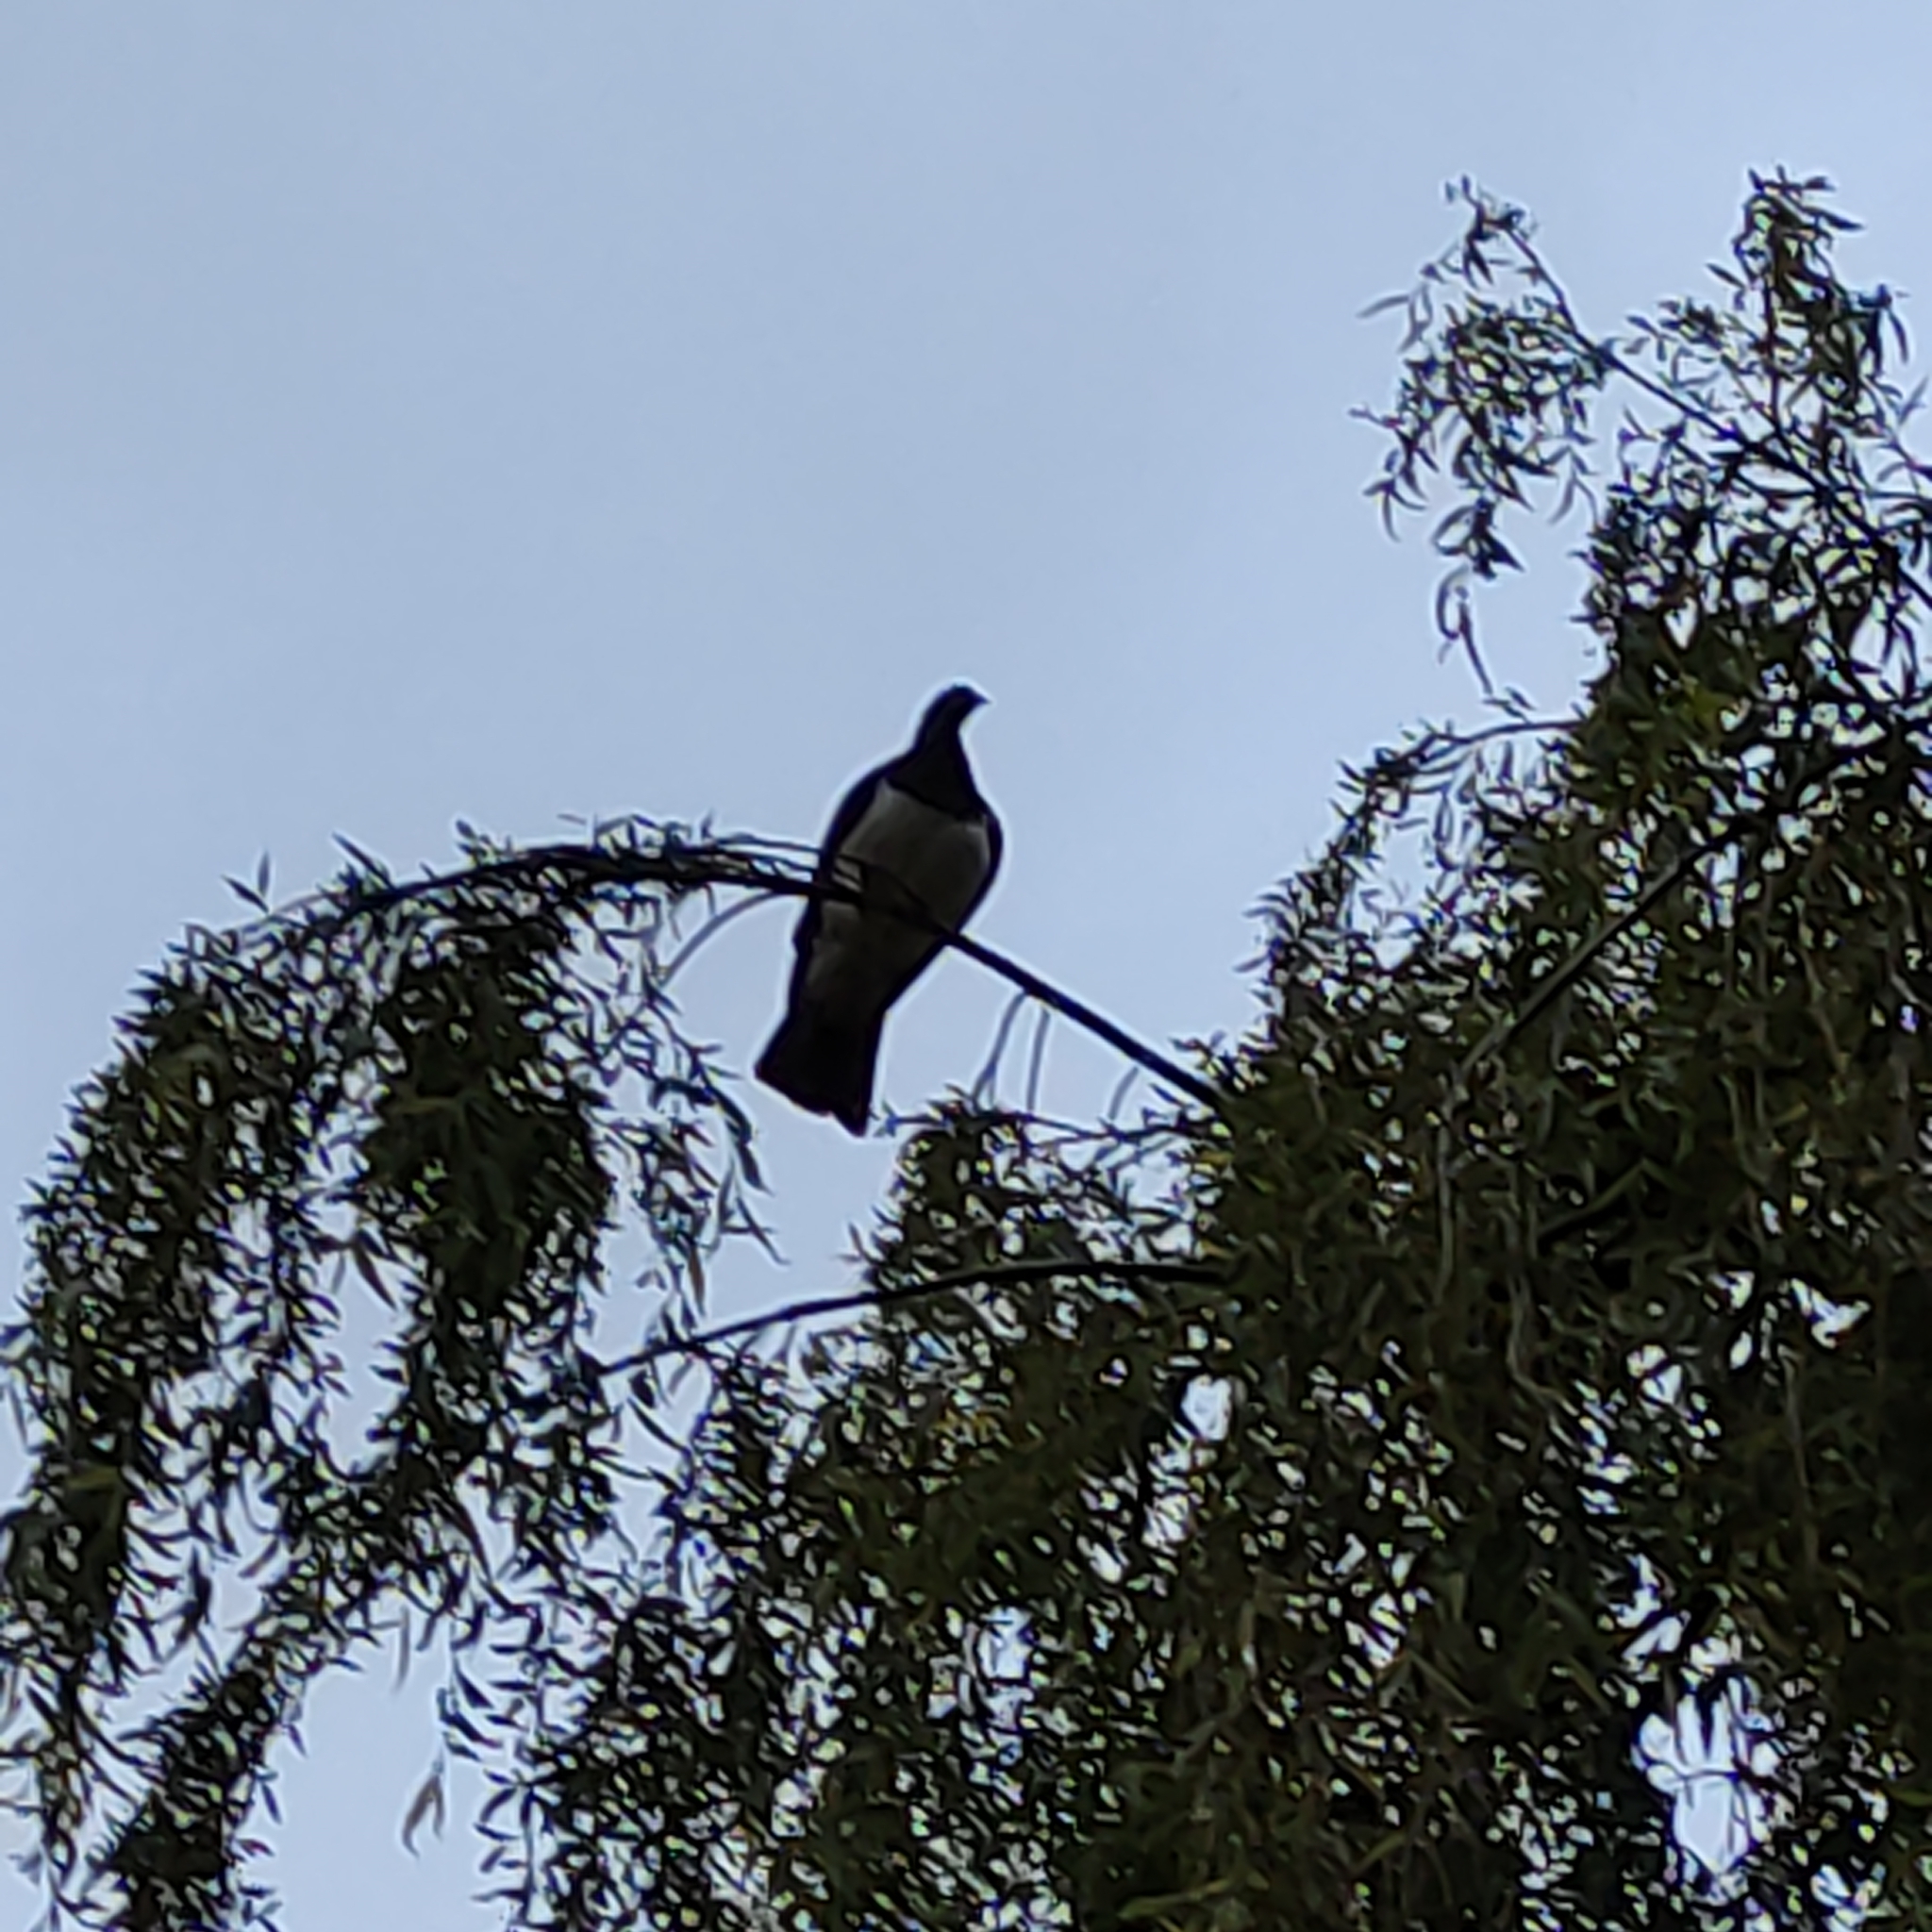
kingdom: Animalia
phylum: Chordata
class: Aves
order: Columbiformes
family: Columbidae
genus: Hemiphaga
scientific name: Hemiphaga novaeseelandiae
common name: New zealand pigeon
